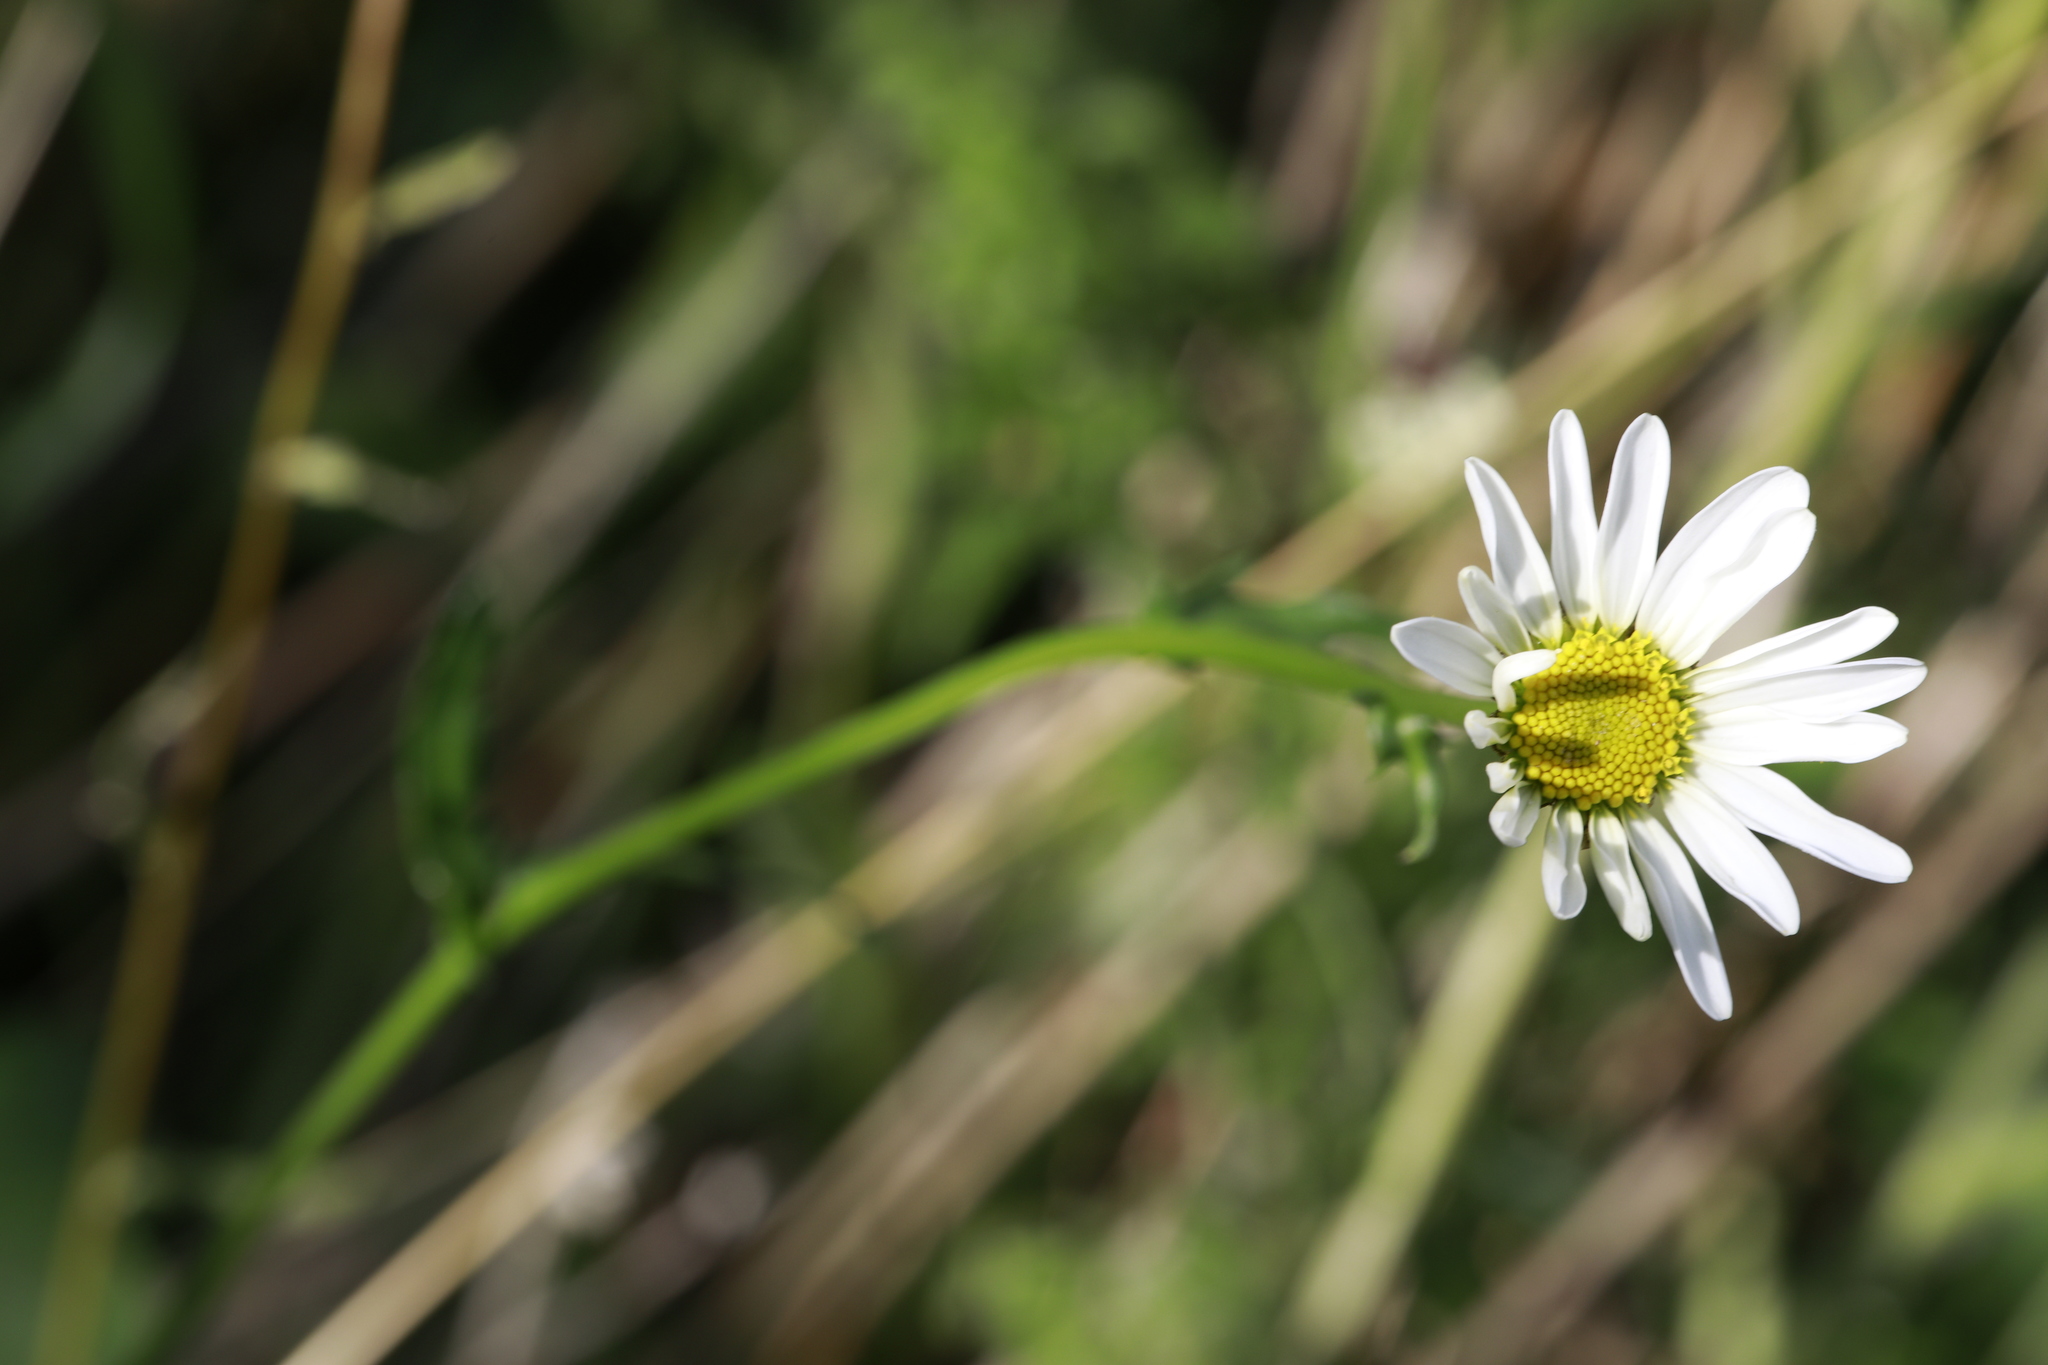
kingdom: Plantae
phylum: Tracheophyta
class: Magnoliopsida
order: Asterales
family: Asteraceae
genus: Leucanthemum
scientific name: Leucanthemum vulgare
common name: Oxeye daisy
